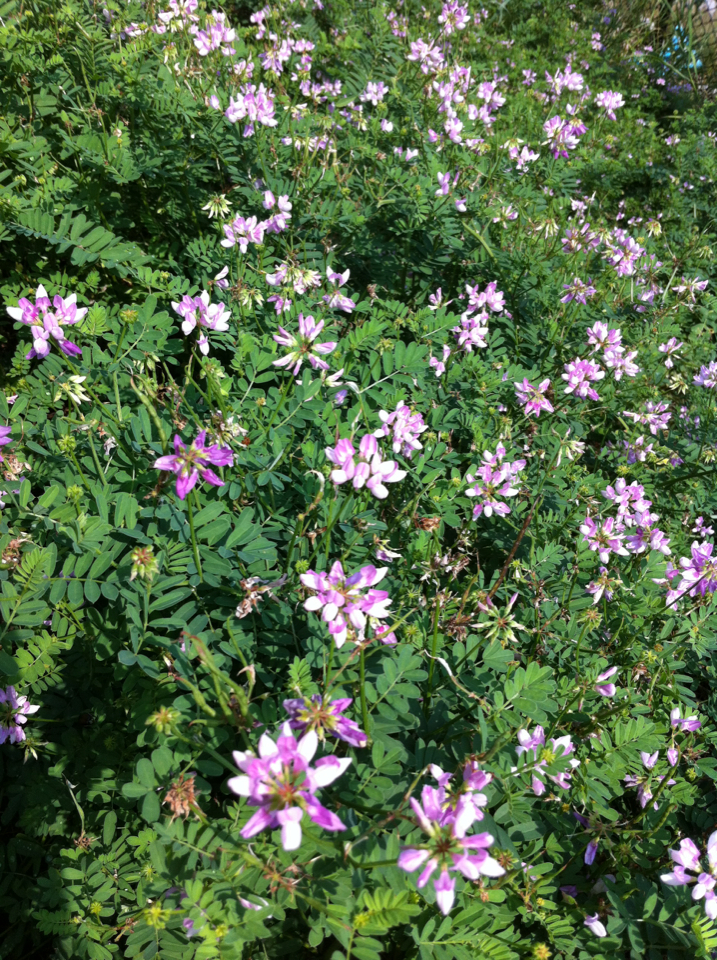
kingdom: Plantae
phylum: Tracheophyta
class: Magnoliopsida
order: Fabales
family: Fabaceae
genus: Coronilla
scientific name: Coronilla varia
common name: Crownvetch
